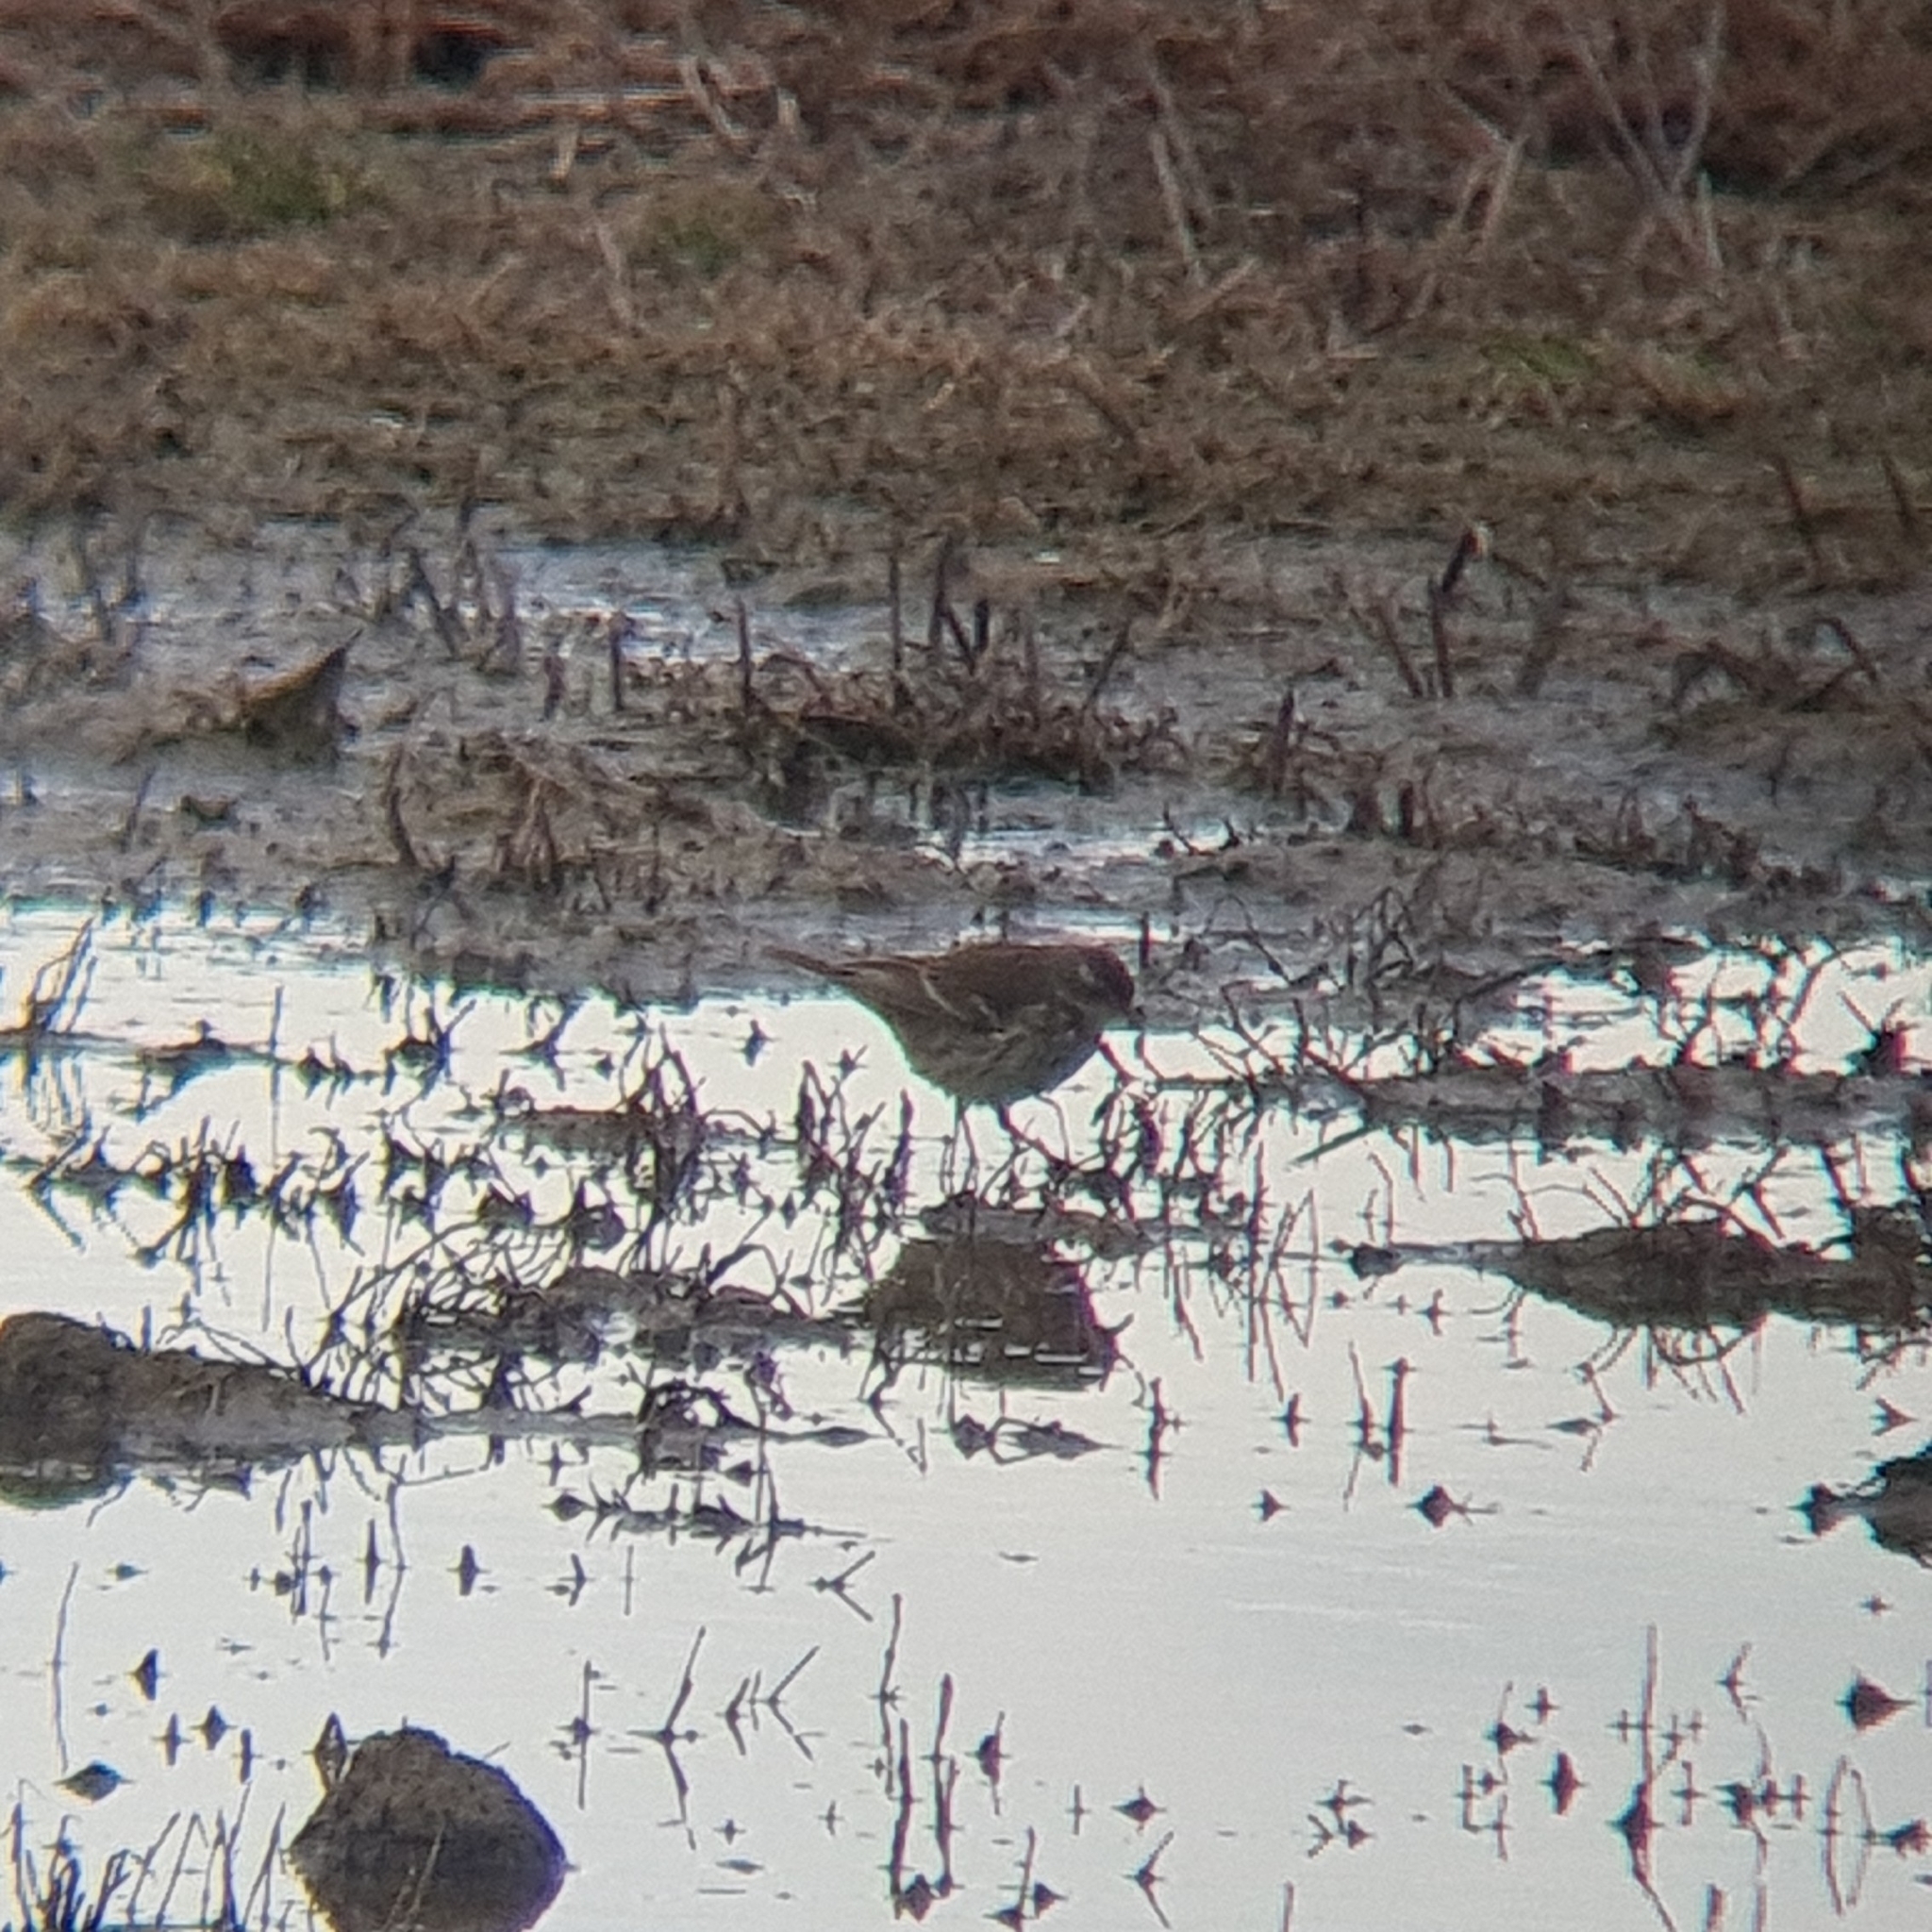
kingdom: Animalia
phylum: Chordata
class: Aves
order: Passeriformes
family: Motacillidae
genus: Anthus
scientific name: Anthus spinoletta
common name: Water pipit
